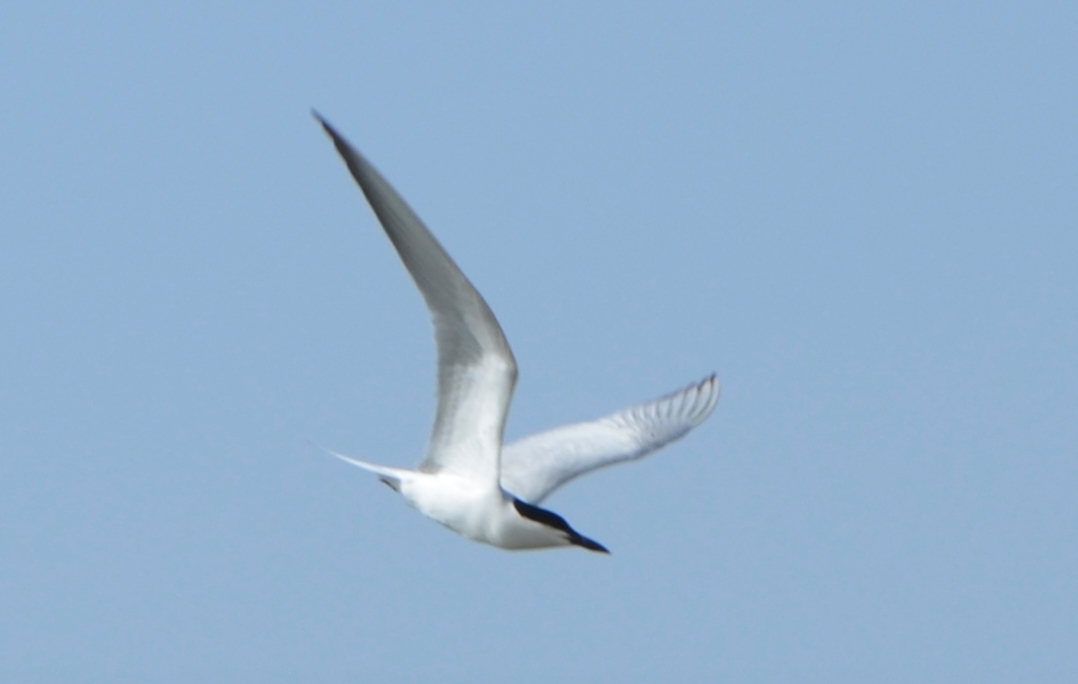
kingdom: Animalia
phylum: Chordata
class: Aves
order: Charadriiformes
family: Laridae
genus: Gelochelidon
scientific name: Gelochelidon nilotica
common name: Gull-billed tern
